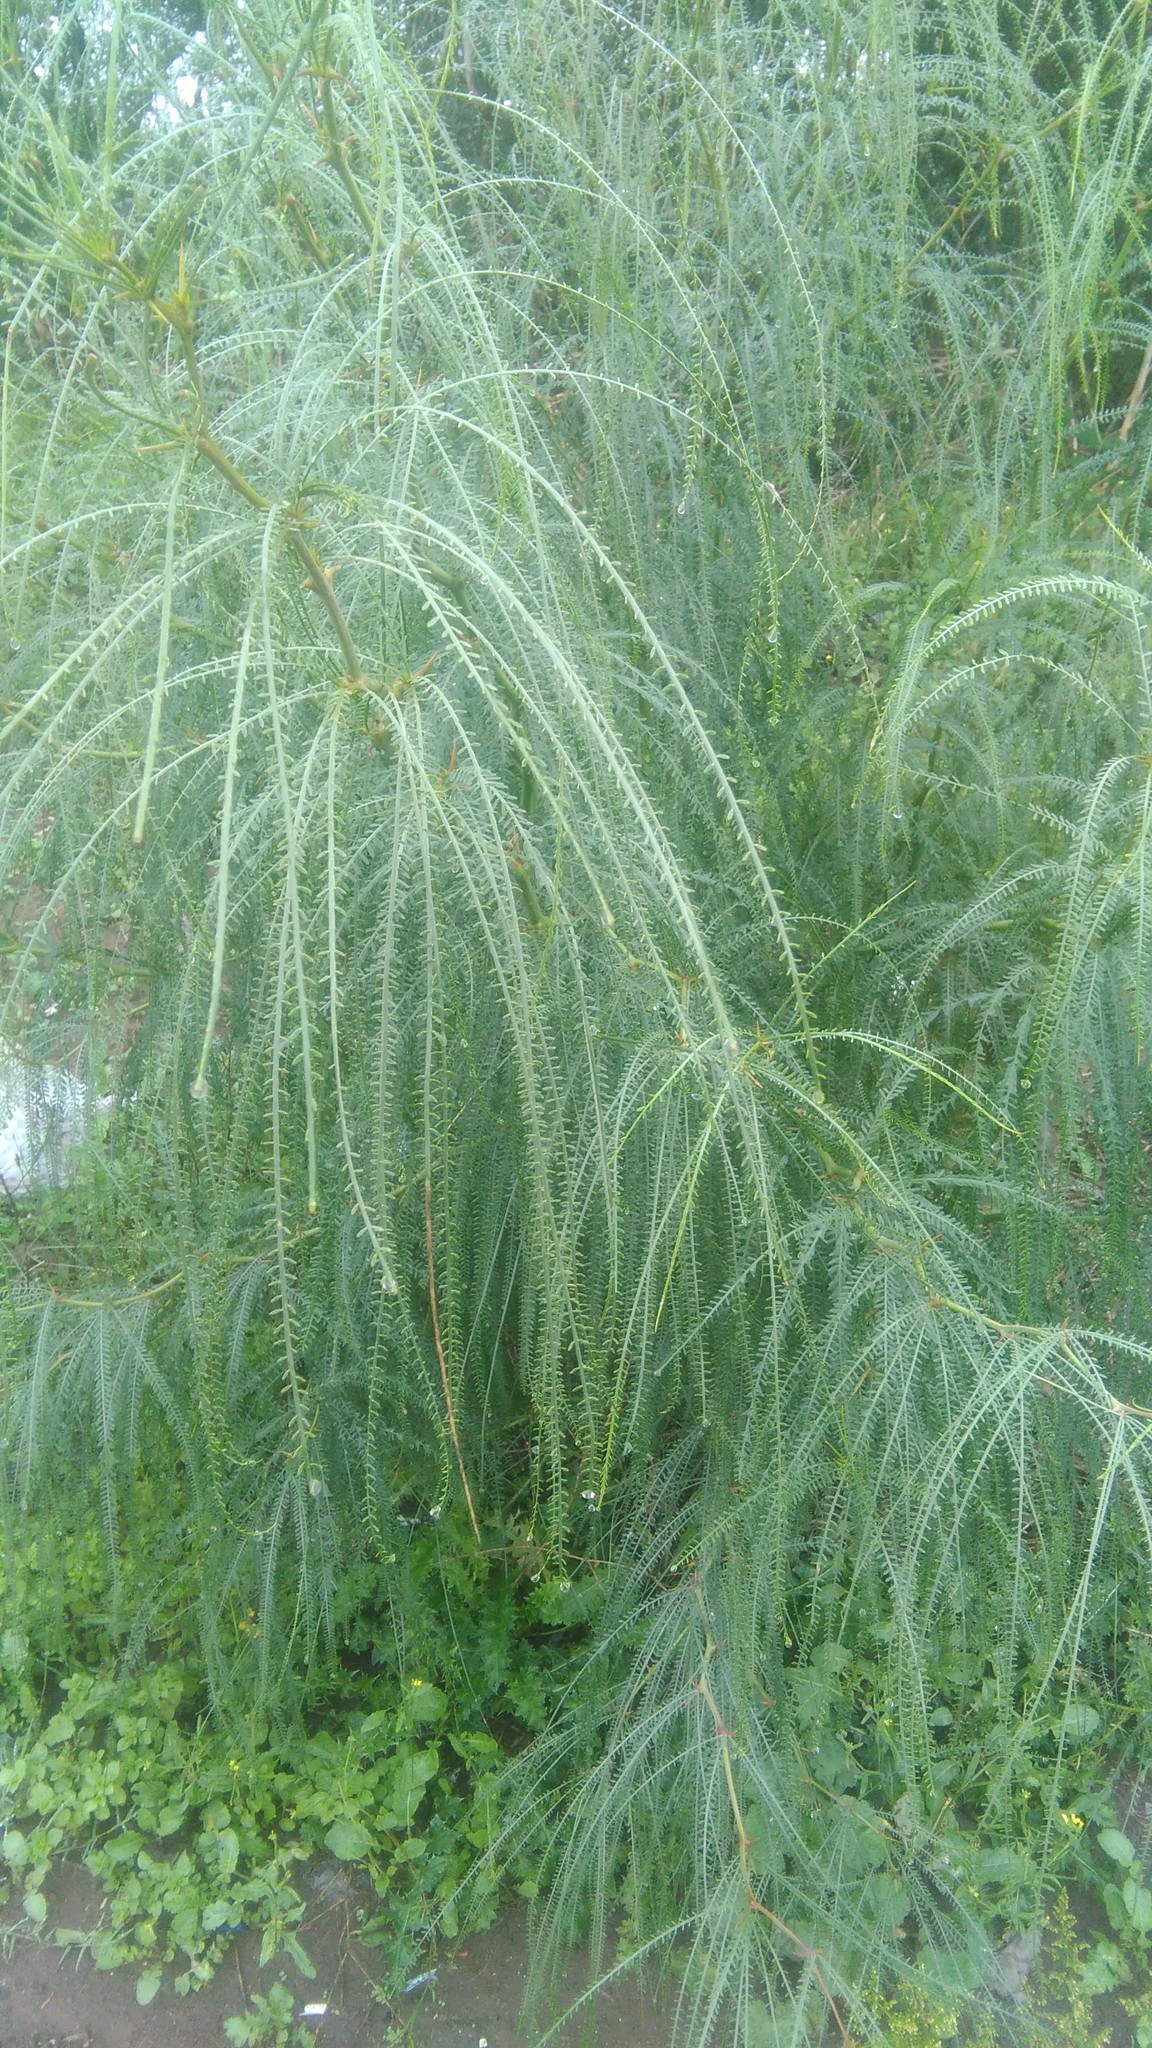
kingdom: Plantae
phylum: Tracheophyta
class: Magnoliopsida
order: Fabales
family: Fabaceae
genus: Parkinsonia
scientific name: Parkinsonia aculeata
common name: Jerusalem thorn
